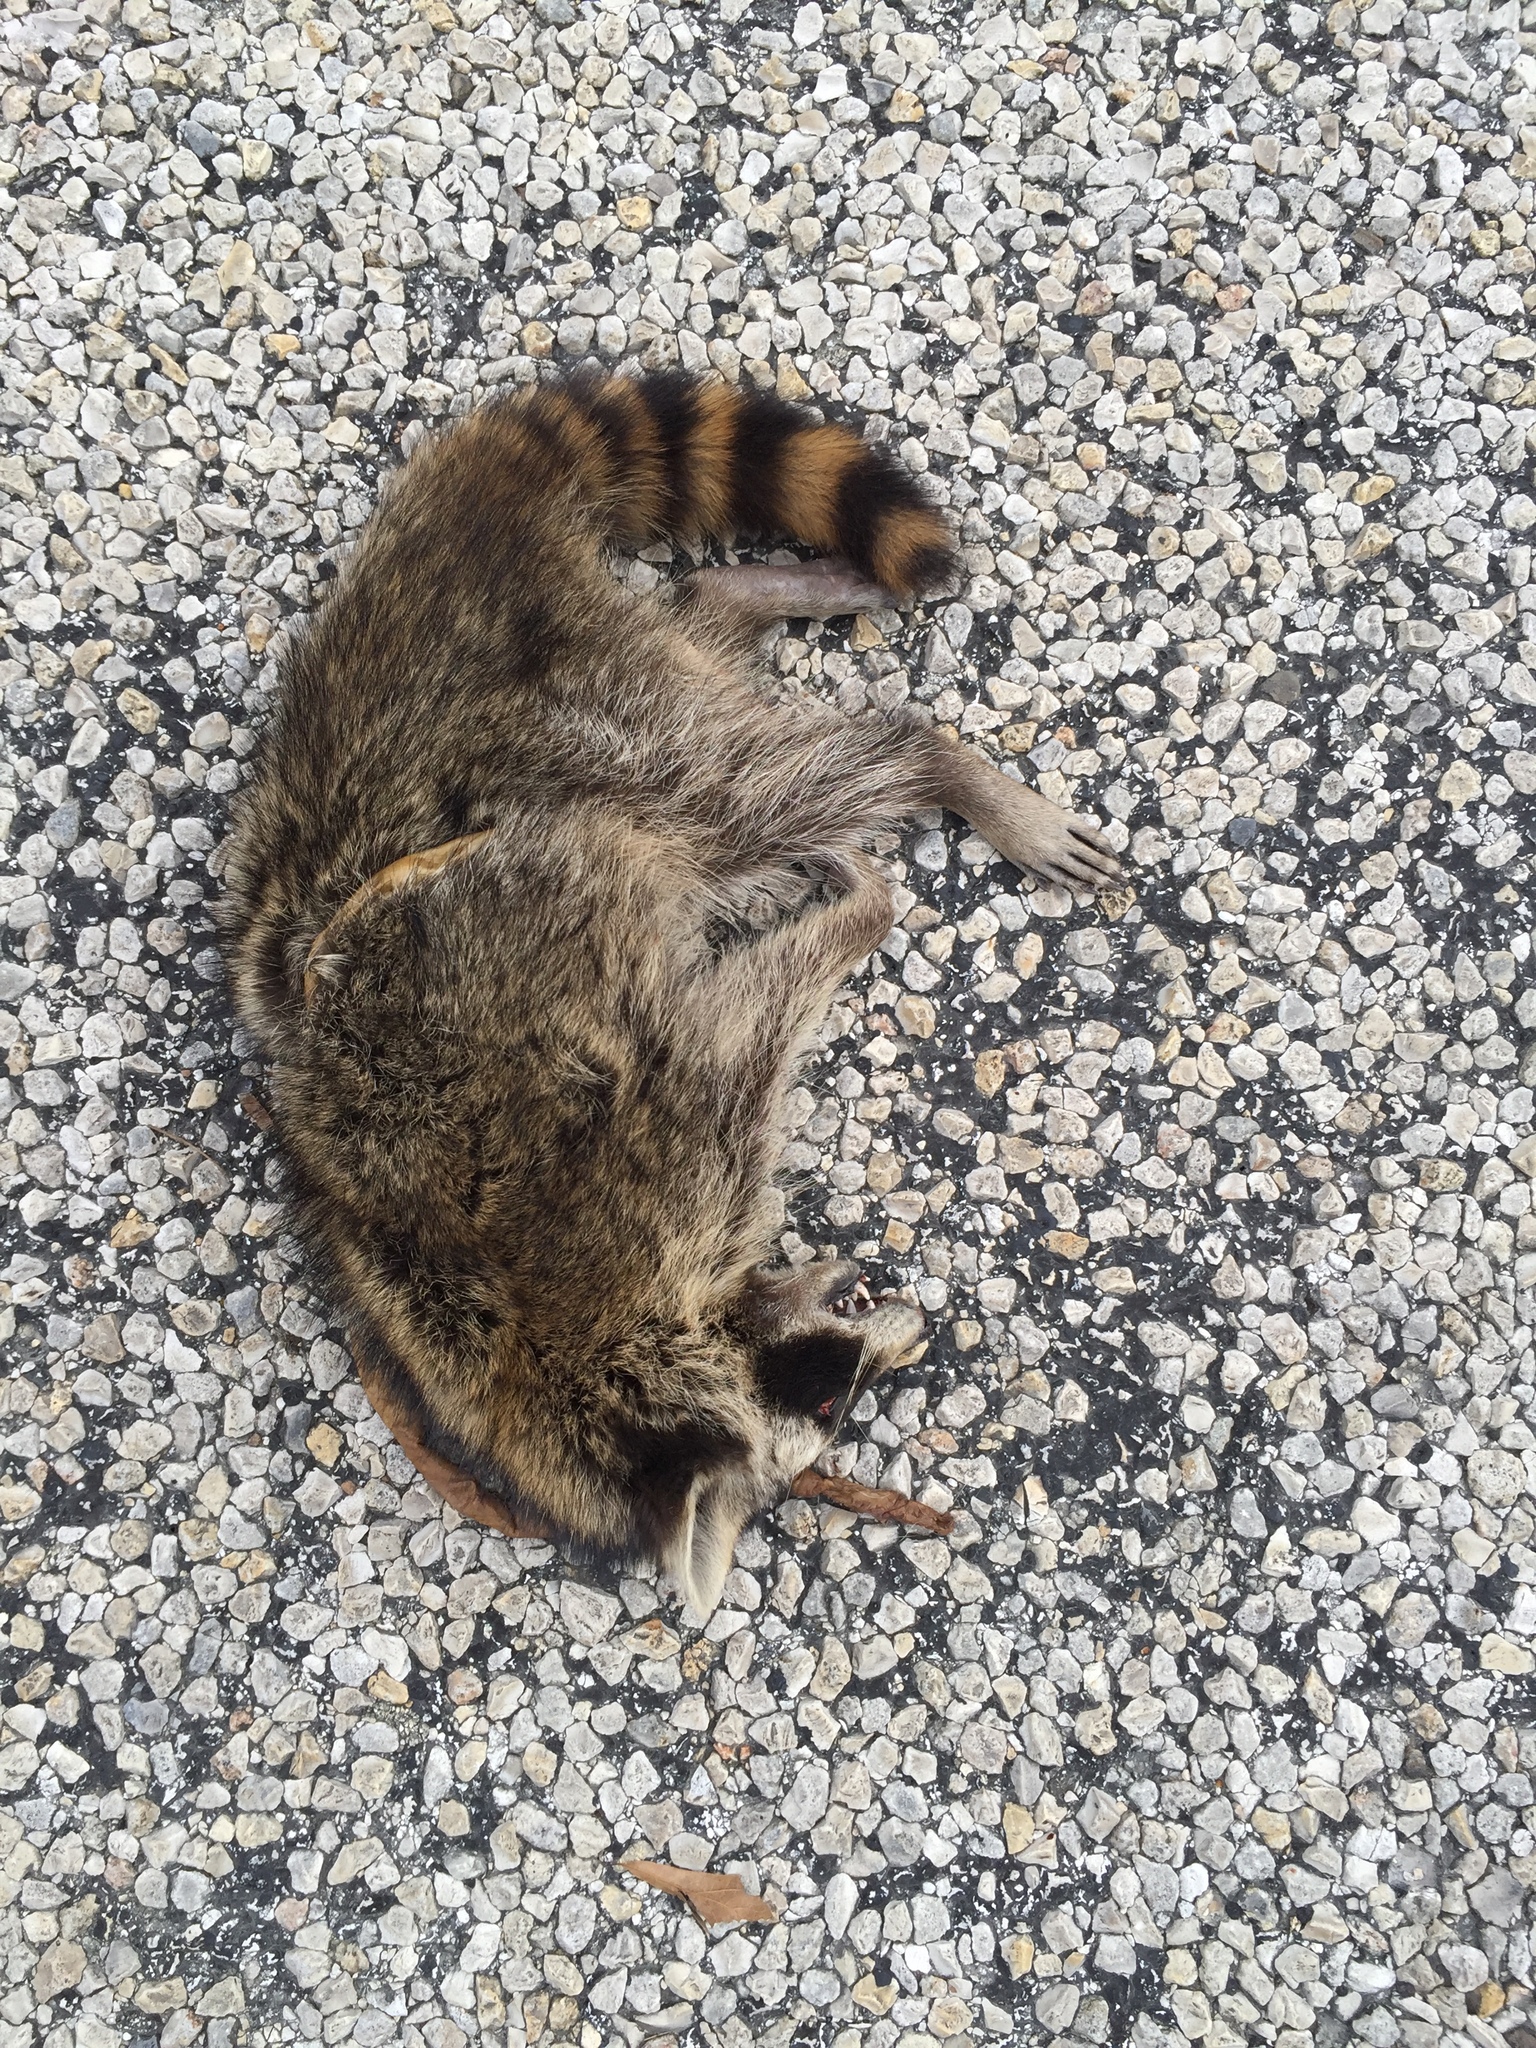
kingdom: Animalia
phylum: Chordata
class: Mammalia
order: Carnivora
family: Procyonidae
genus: Procyon
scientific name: Procyon lotor
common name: Raccoon
